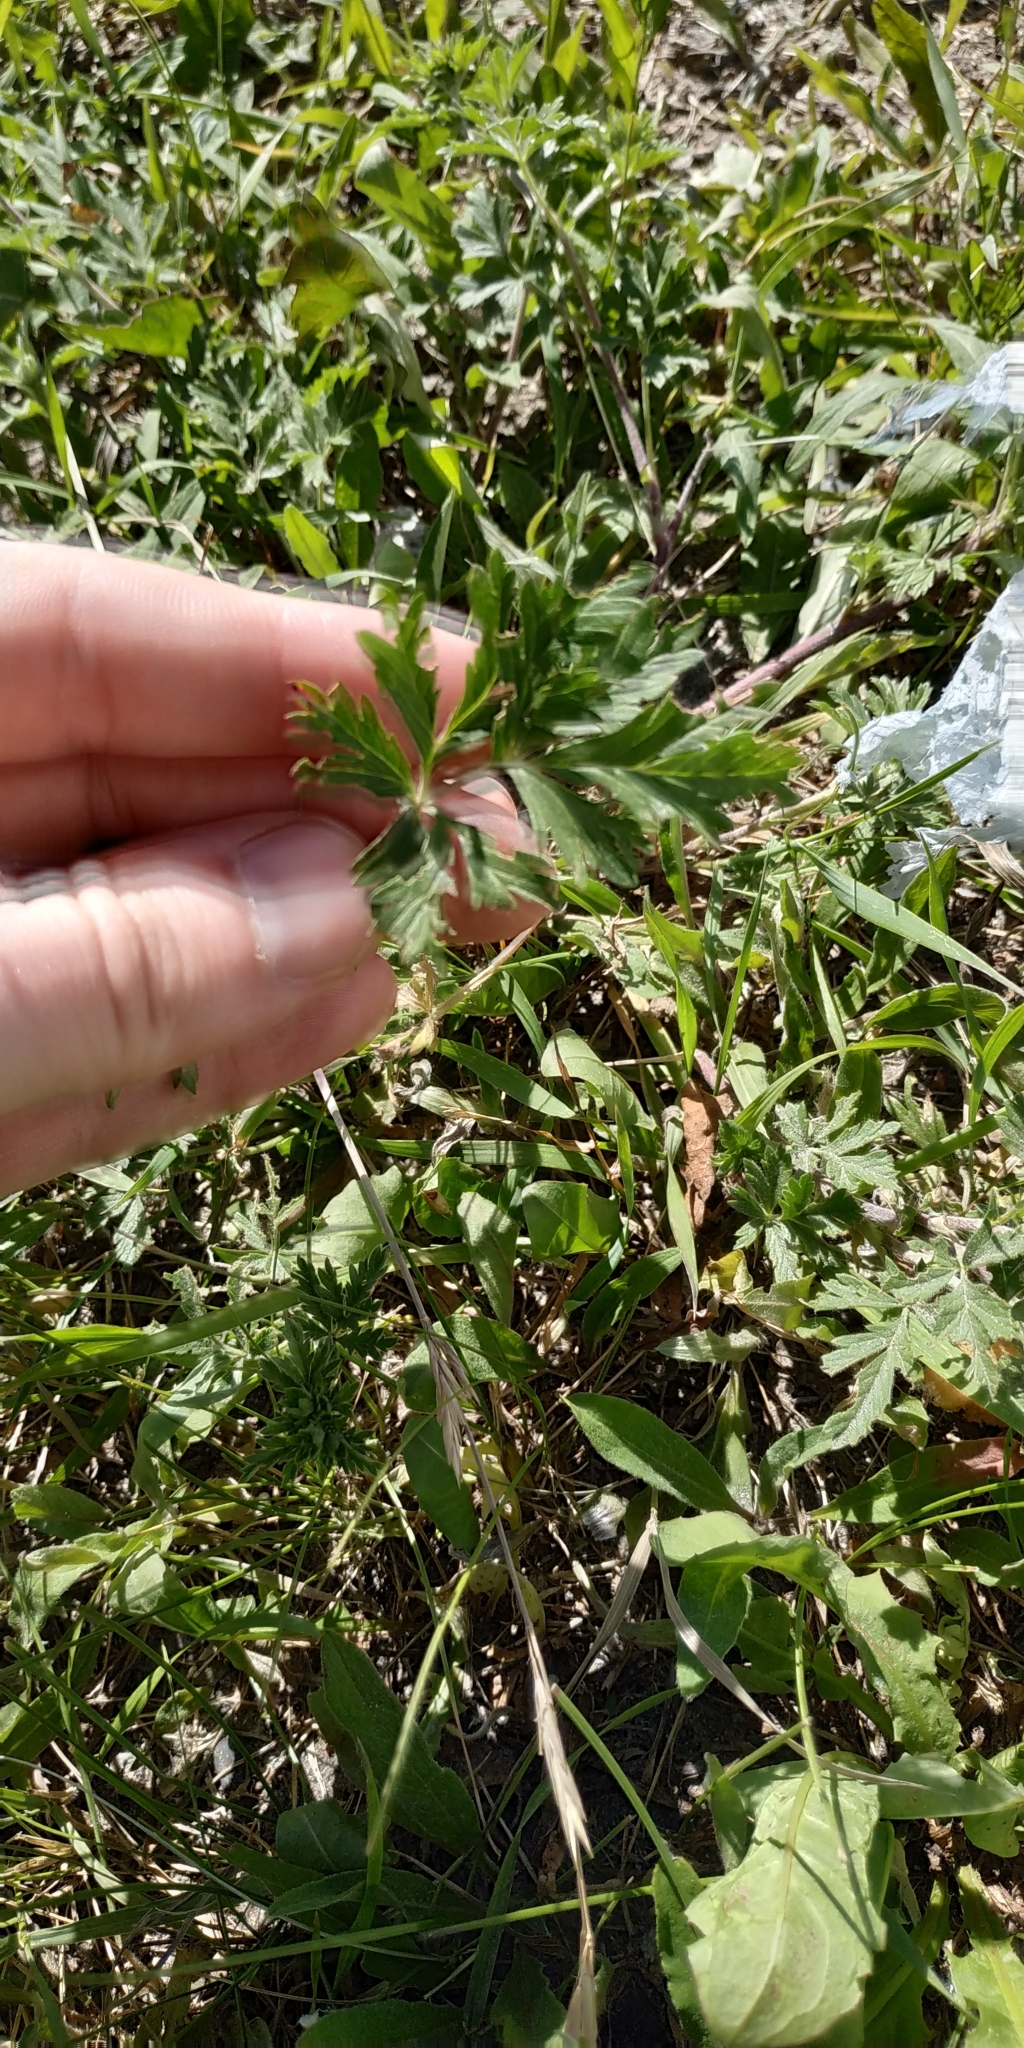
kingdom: Plantae
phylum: Tracheophyta
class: Magnoliopsida
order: Rosales
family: Rosaceae
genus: Potentilla
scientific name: Potentilla tobolensis
